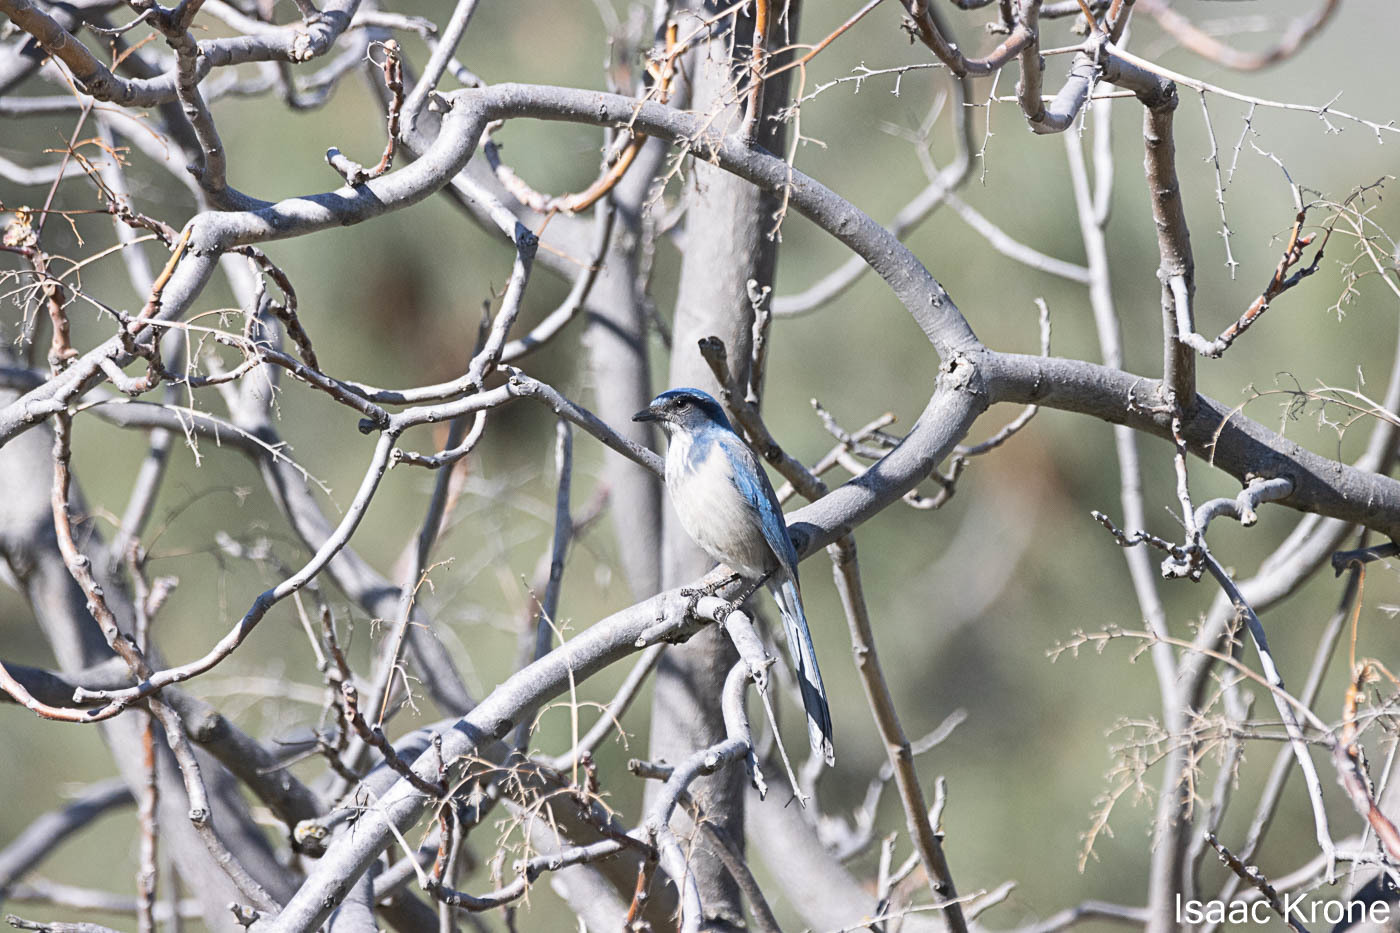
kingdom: Animalia
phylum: Chordata
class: Aves
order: Passeriformes
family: Corvidae
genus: Aphelocoma
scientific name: Aphelocoma californica
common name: California scrub-jay
